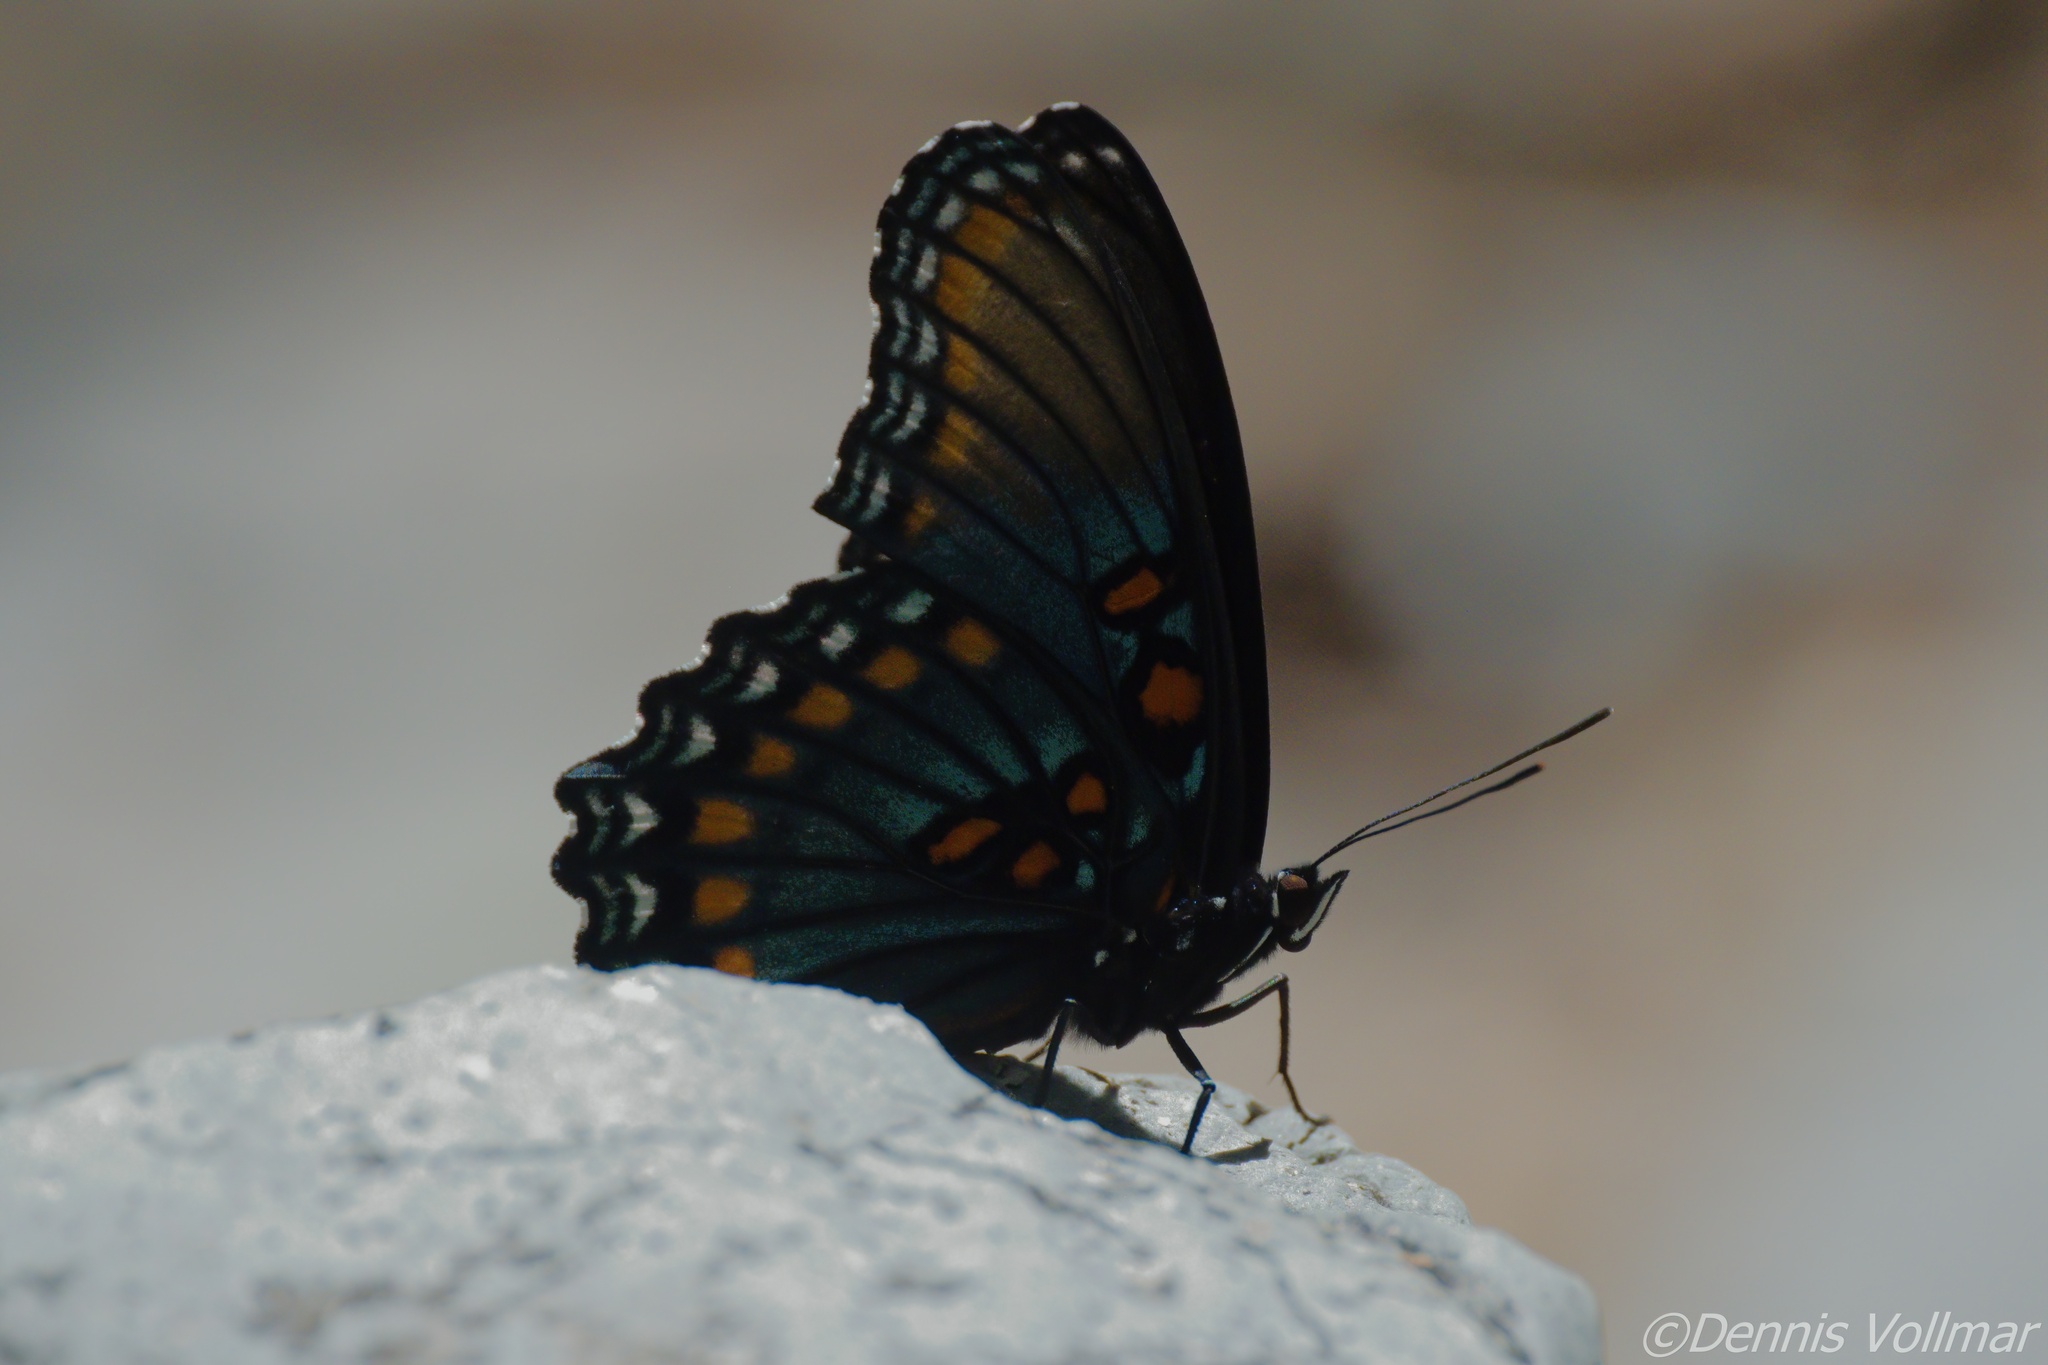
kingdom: Animalia
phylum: Arthropoda
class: Insecta
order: Lepidoptera
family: Nymphalidae
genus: Limenitis
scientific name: Limenitis arthemis
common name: Red-spotted admiral
